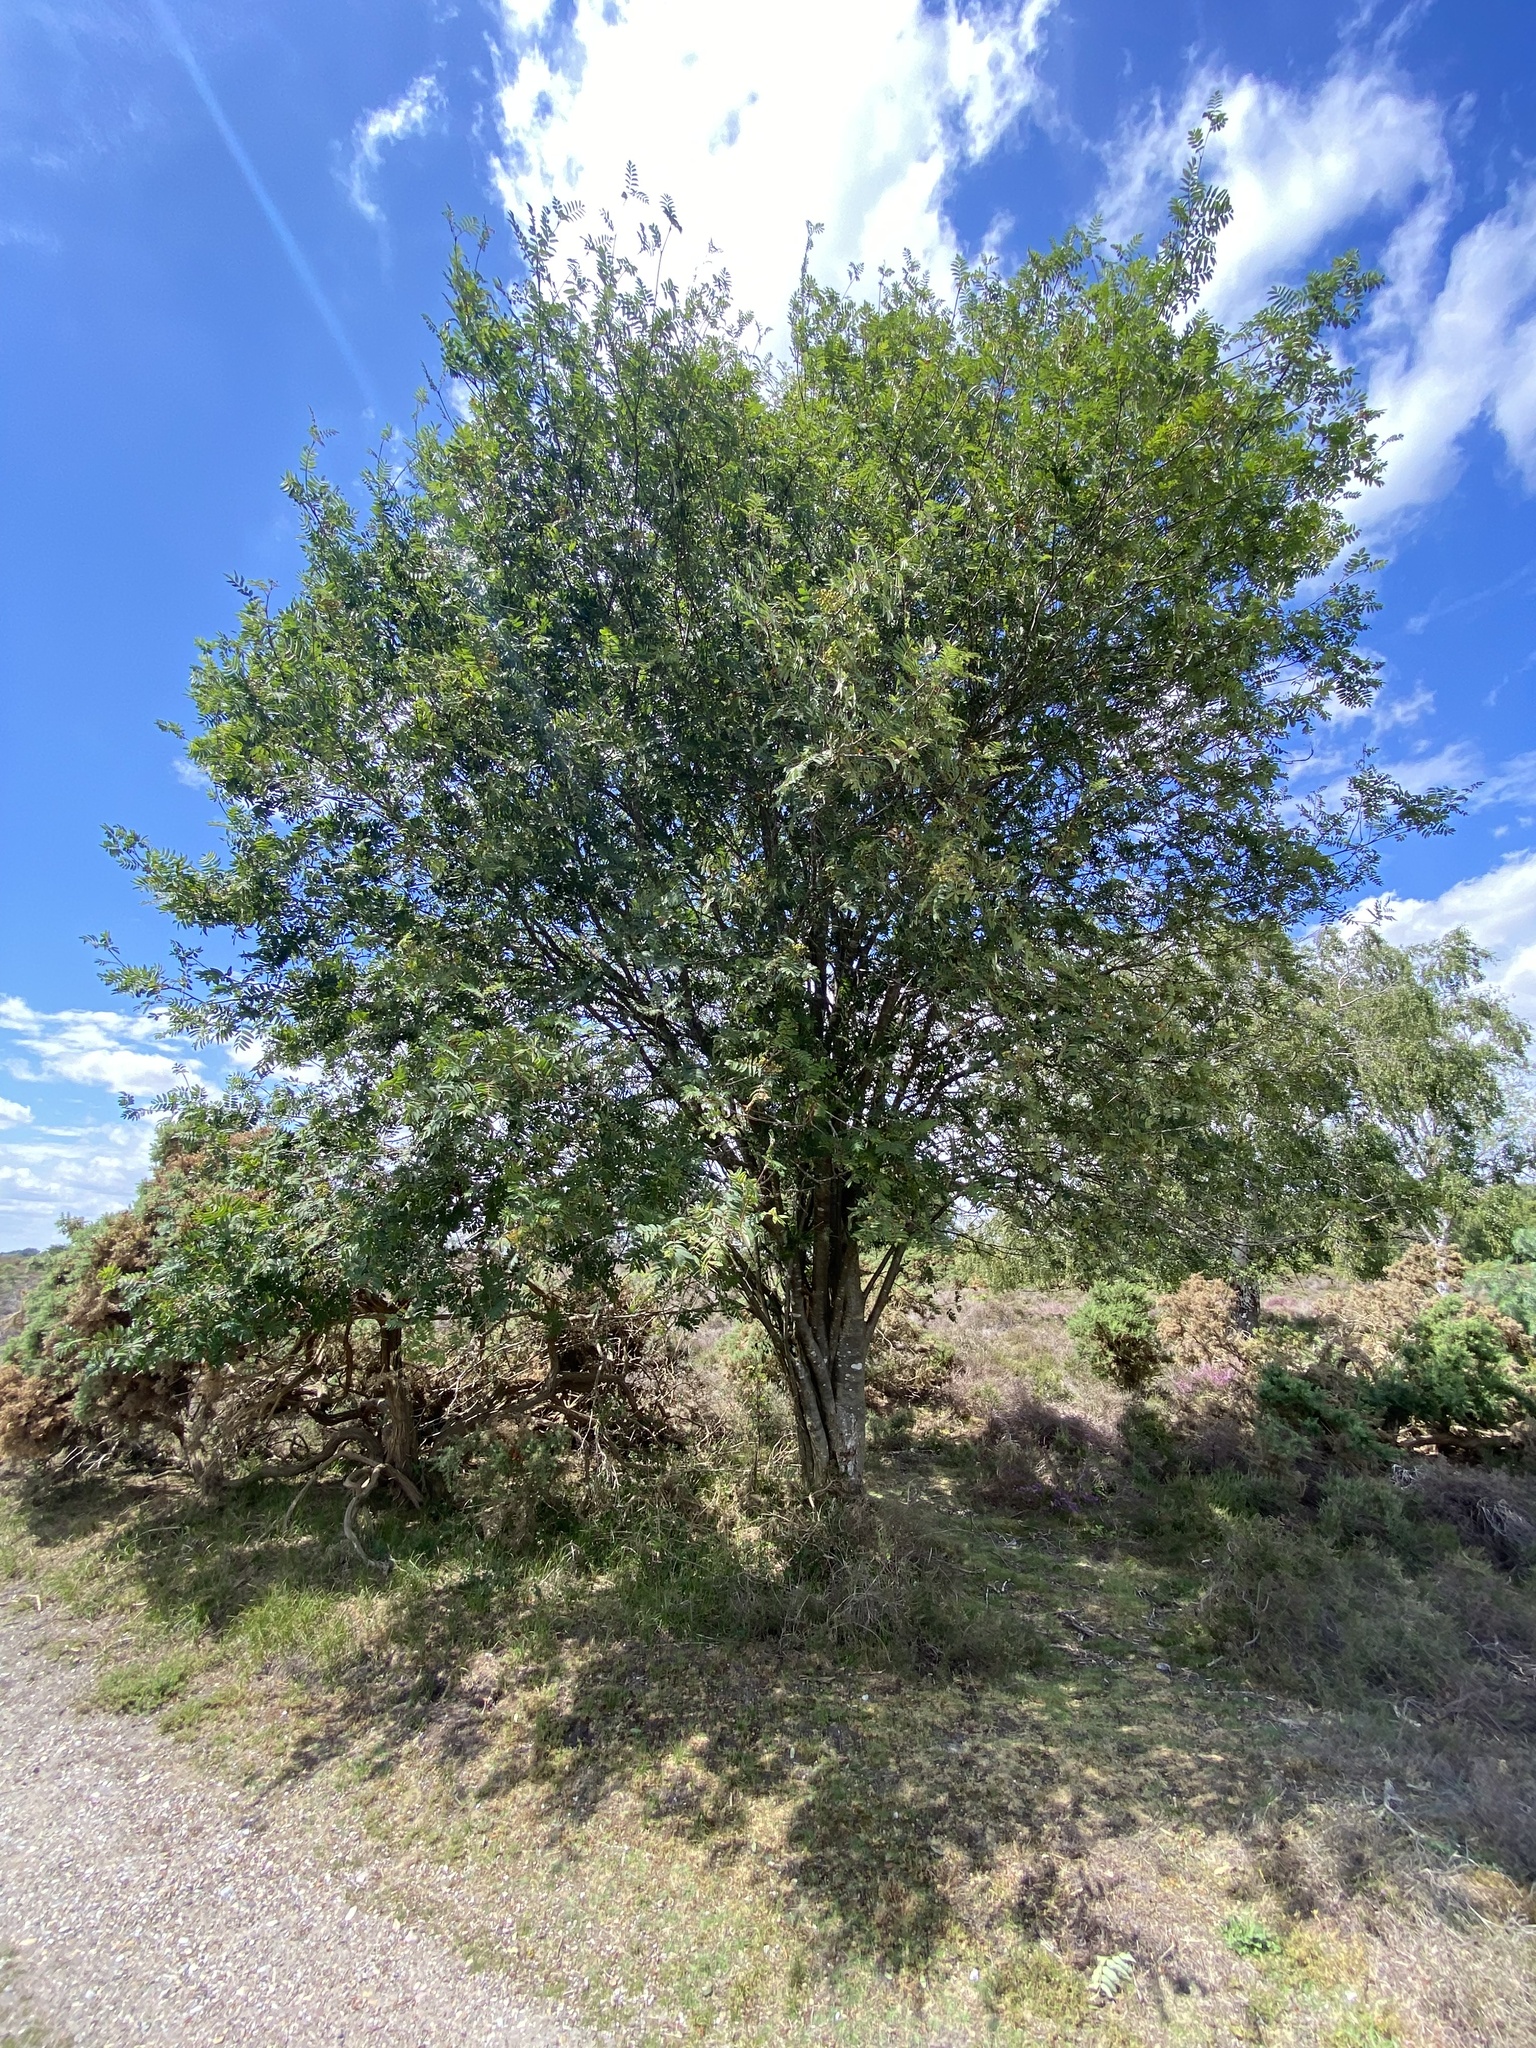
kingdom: Plantae
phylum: Tracheophyta
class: Magnoliopsida
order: Rosales
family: Rosaceae
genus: Sorbus
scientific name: Sorbus aucuparia
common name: Rowan
